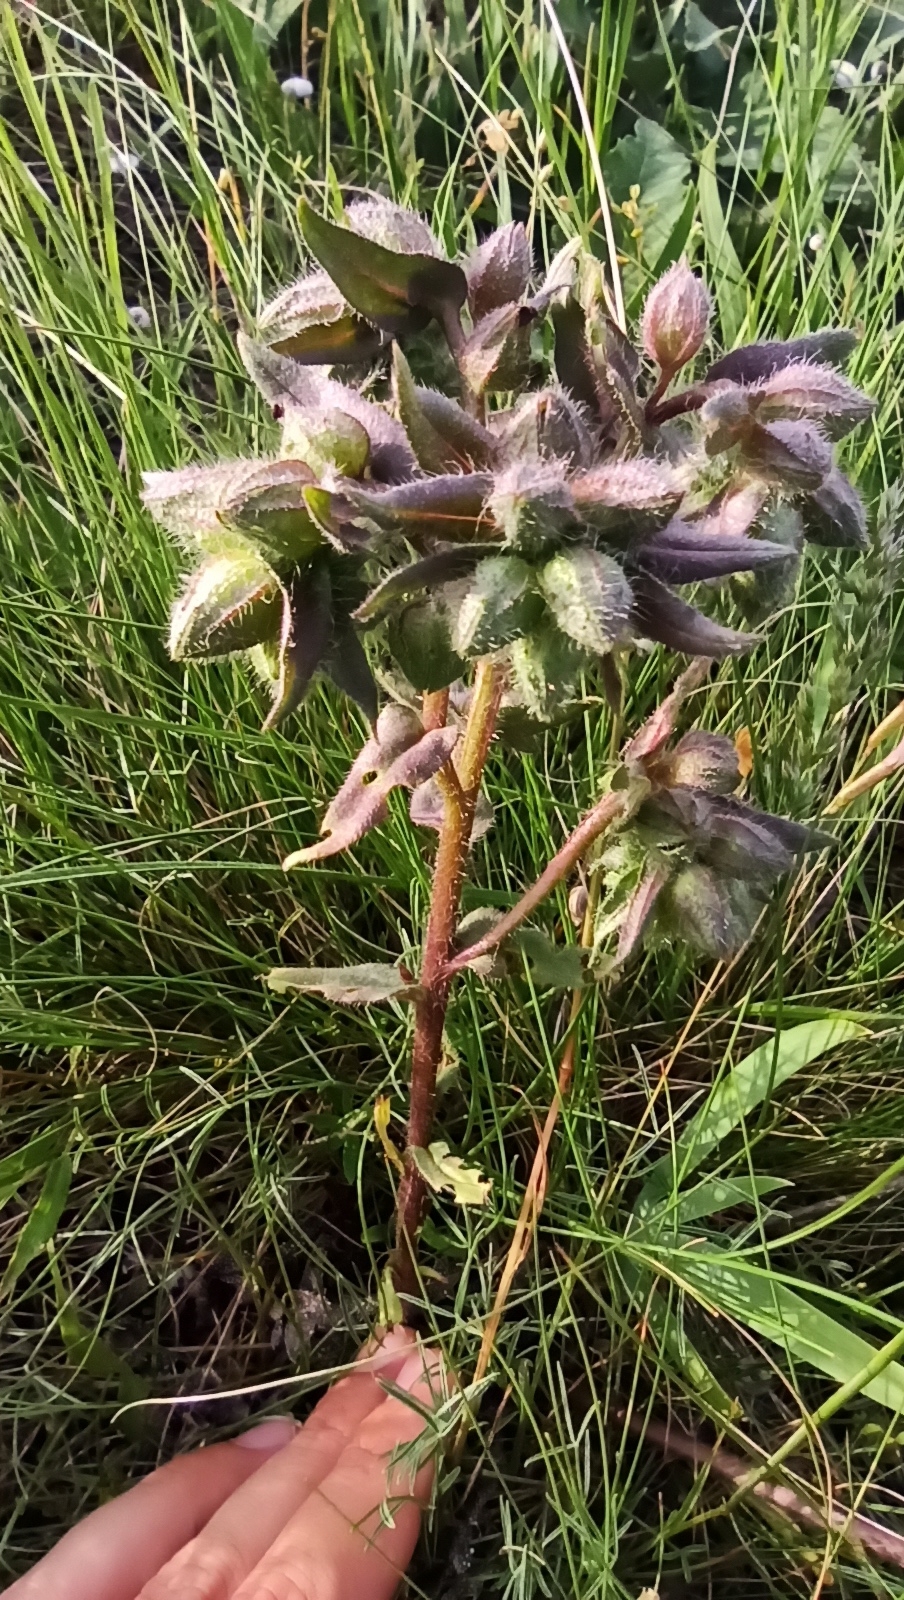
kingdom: Plantae
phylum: Tracheophyta
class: Magnoliopsida
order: Boraginales
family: Boraginaceae
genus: Nonea
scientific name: Nonea pulla
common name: Brown nonea
